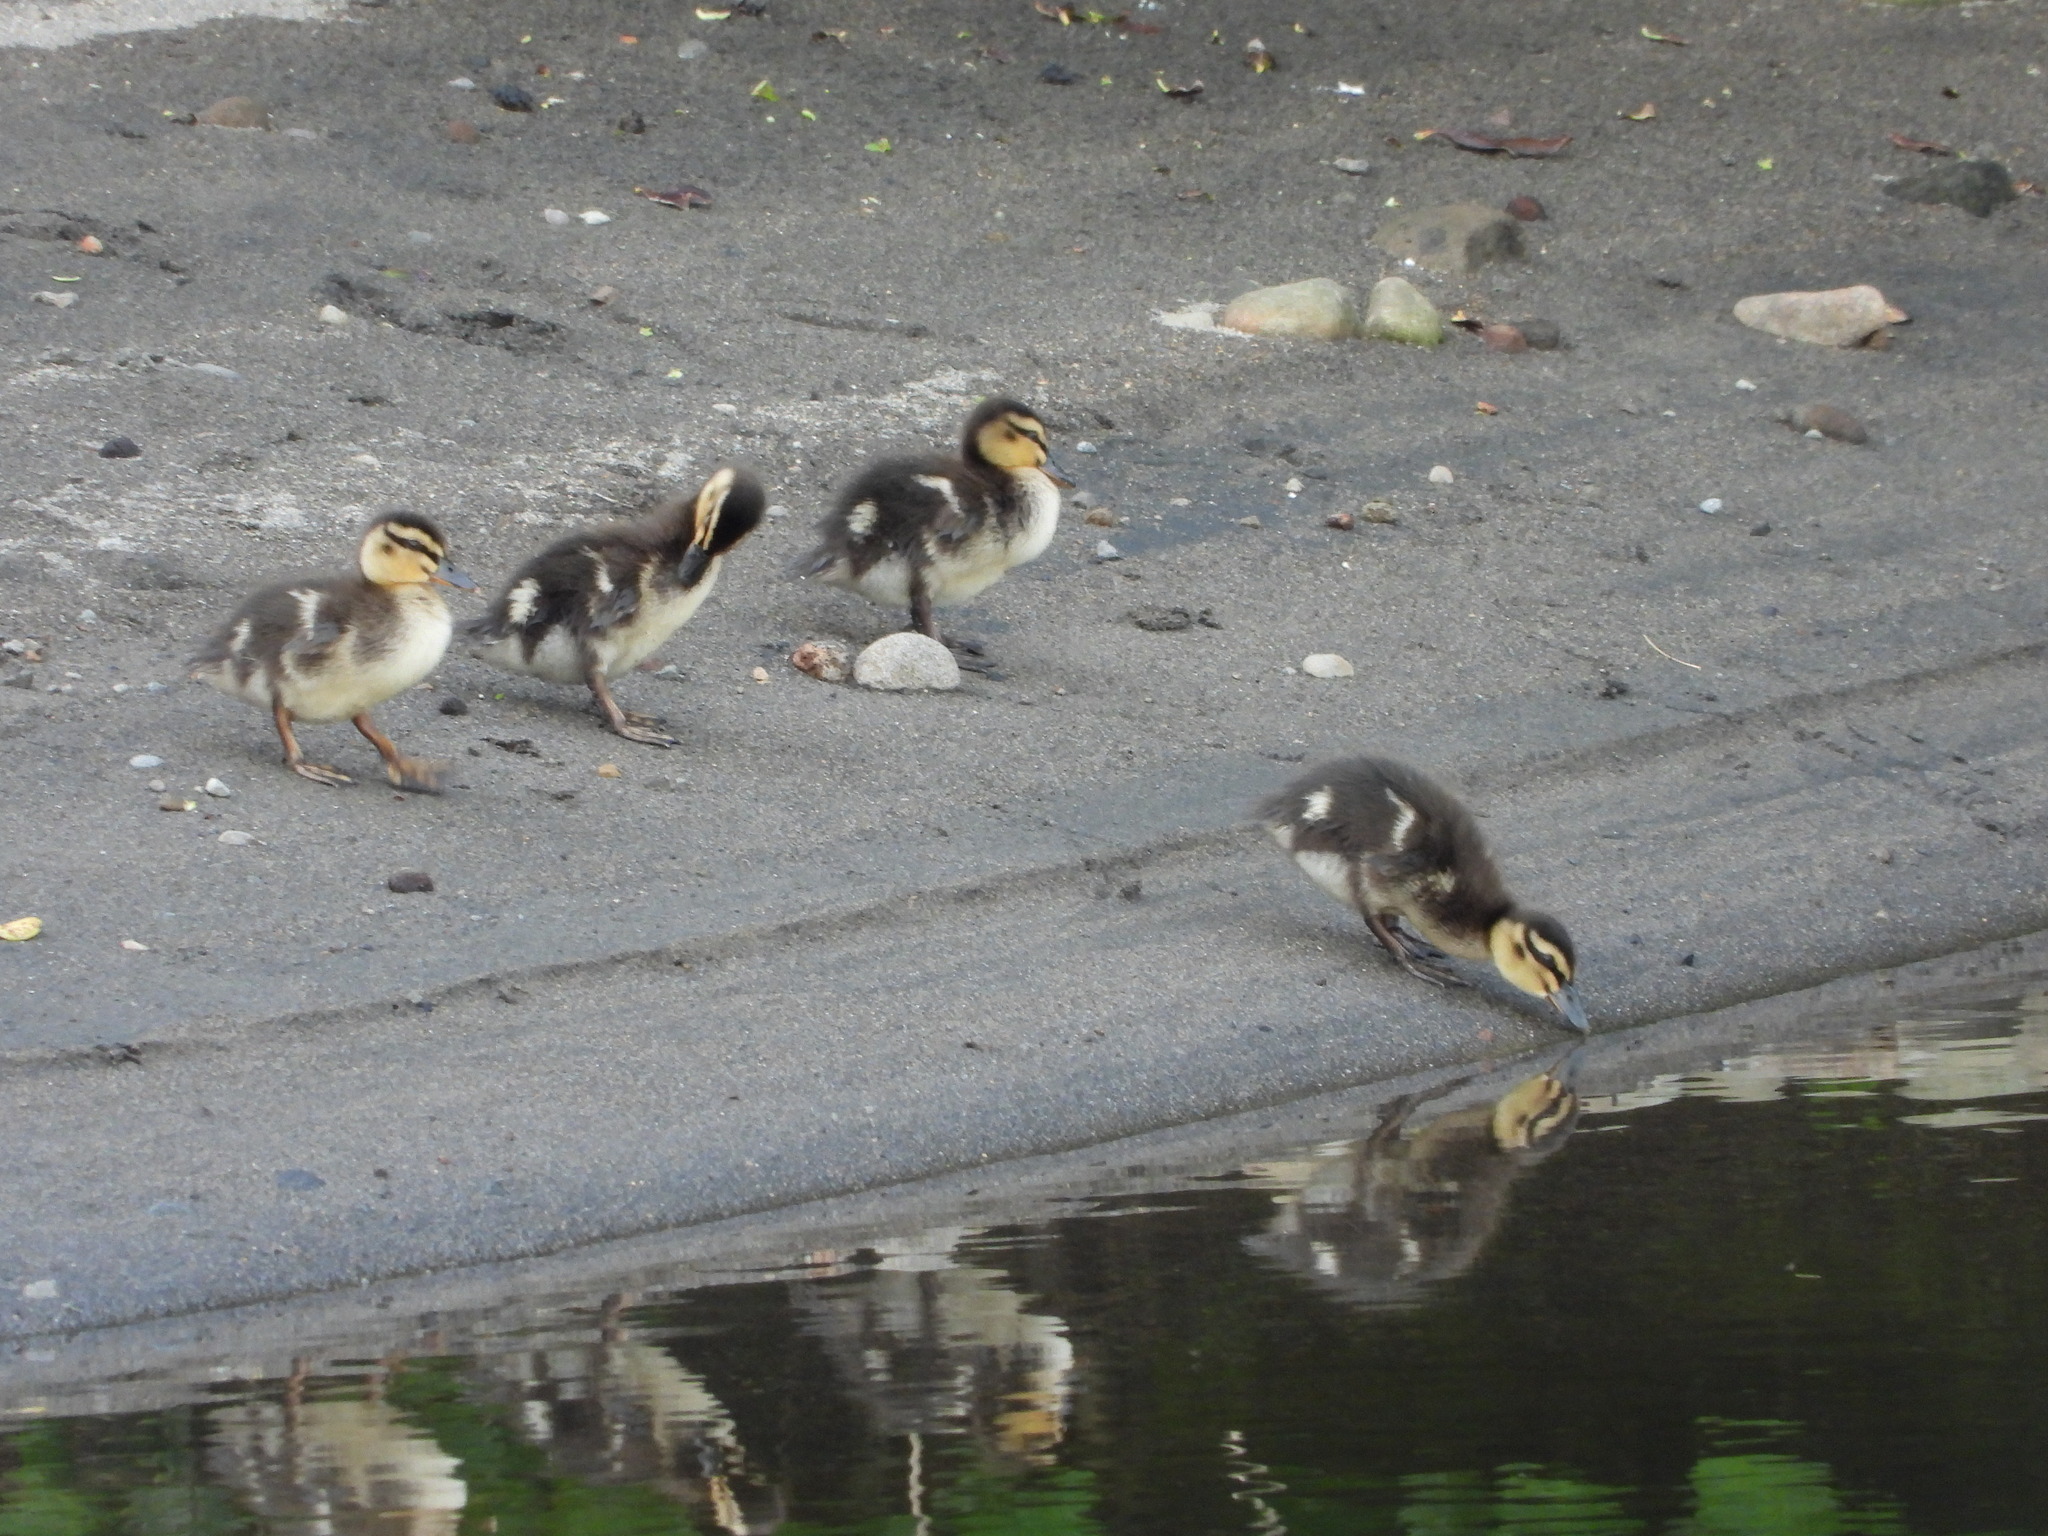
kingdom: Animalia
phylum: Chordata
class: Aves
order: Anseriformes
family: Anatidae
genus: Anas
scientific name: Anas
